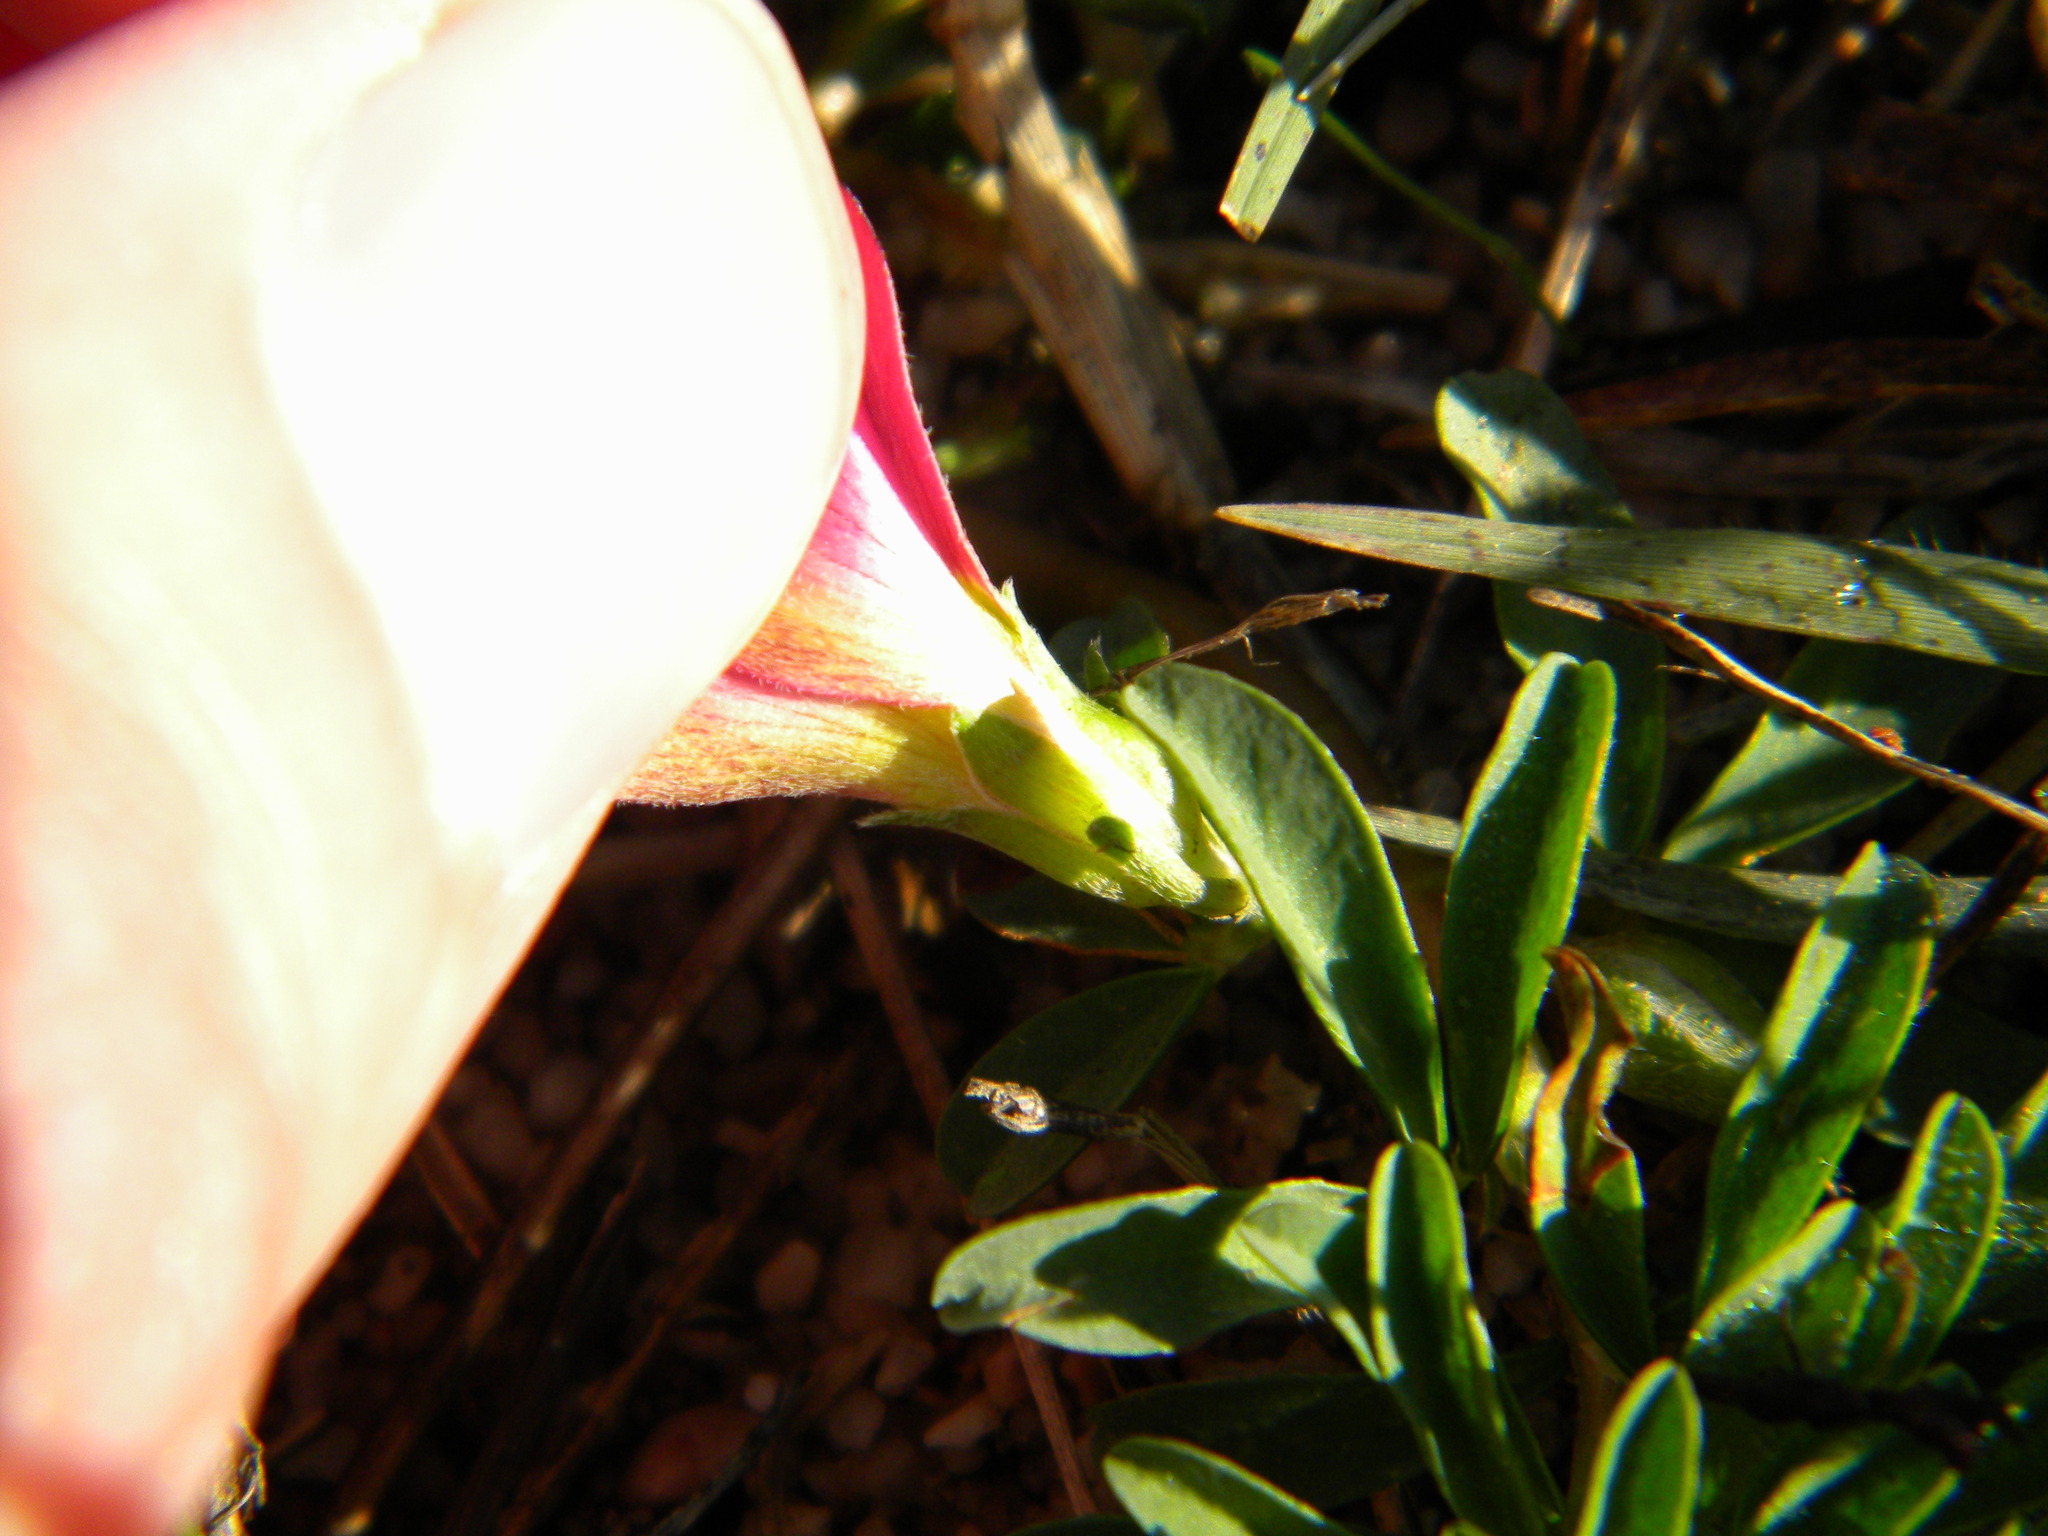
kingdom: Plantae
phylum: Tracheophyta
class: Magnoliopsida
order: Oxalidales
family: Oxalidaceae
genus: Oxalis
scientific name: Oxalis hirta
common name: Tropical woodsorrel
